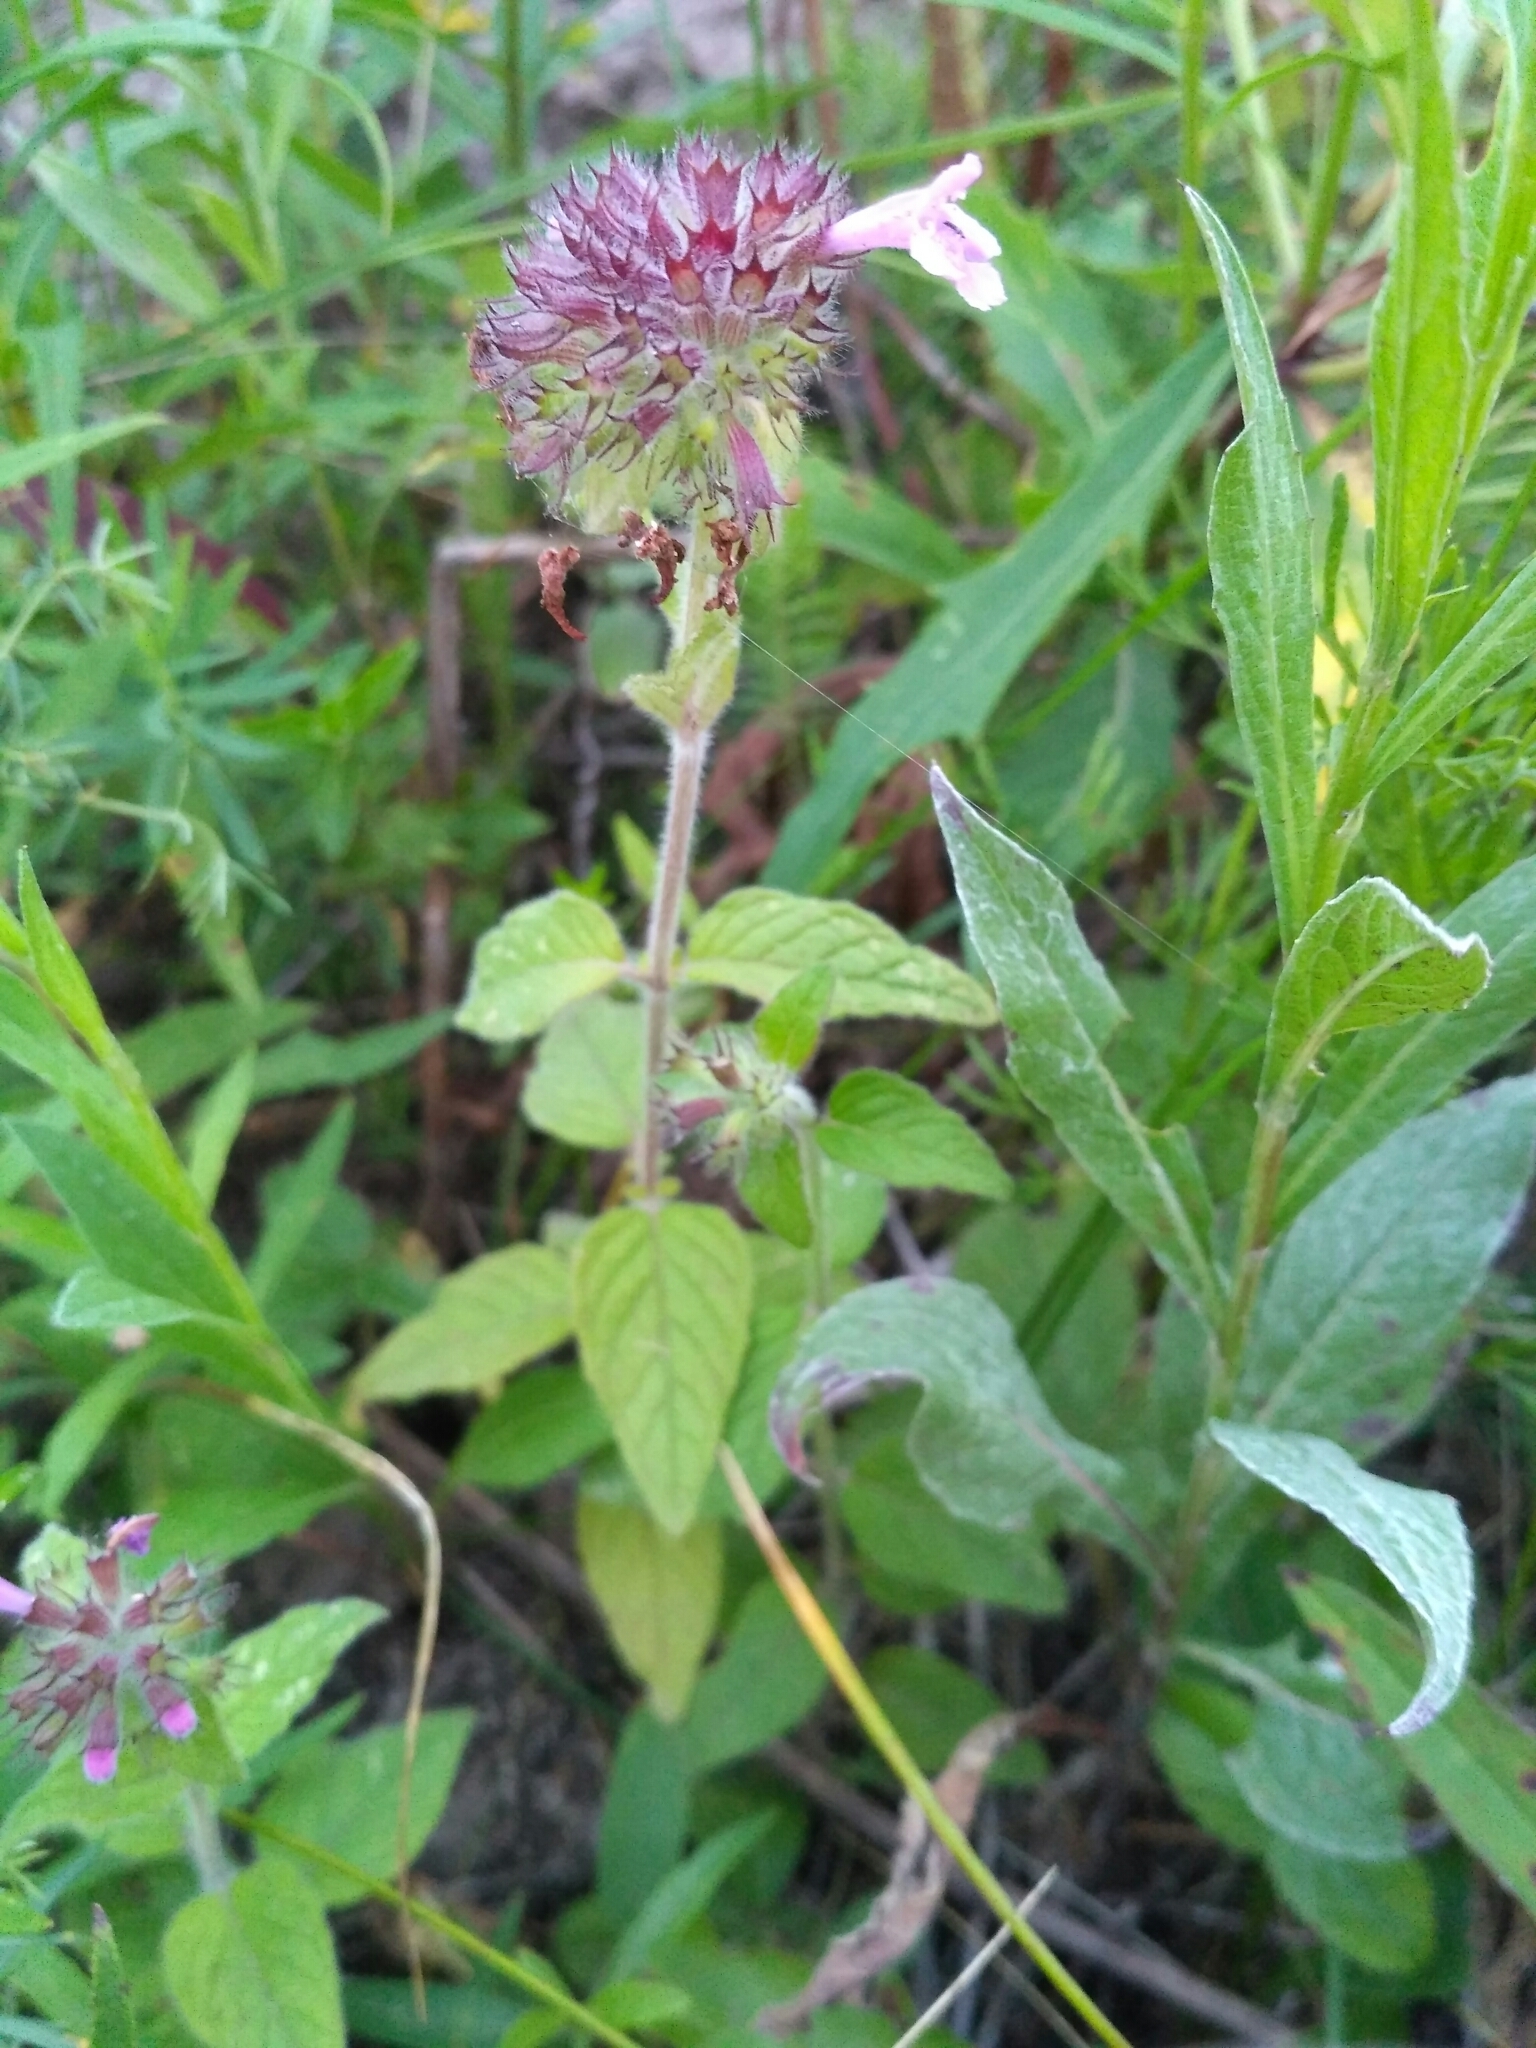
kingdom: Plantae
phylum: Tracheophyta
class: Magnoliopsida
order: Lamiales
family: Lamiaceae
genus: Clinopodium
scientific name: Clinopodium vulgare
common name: Wild basil
